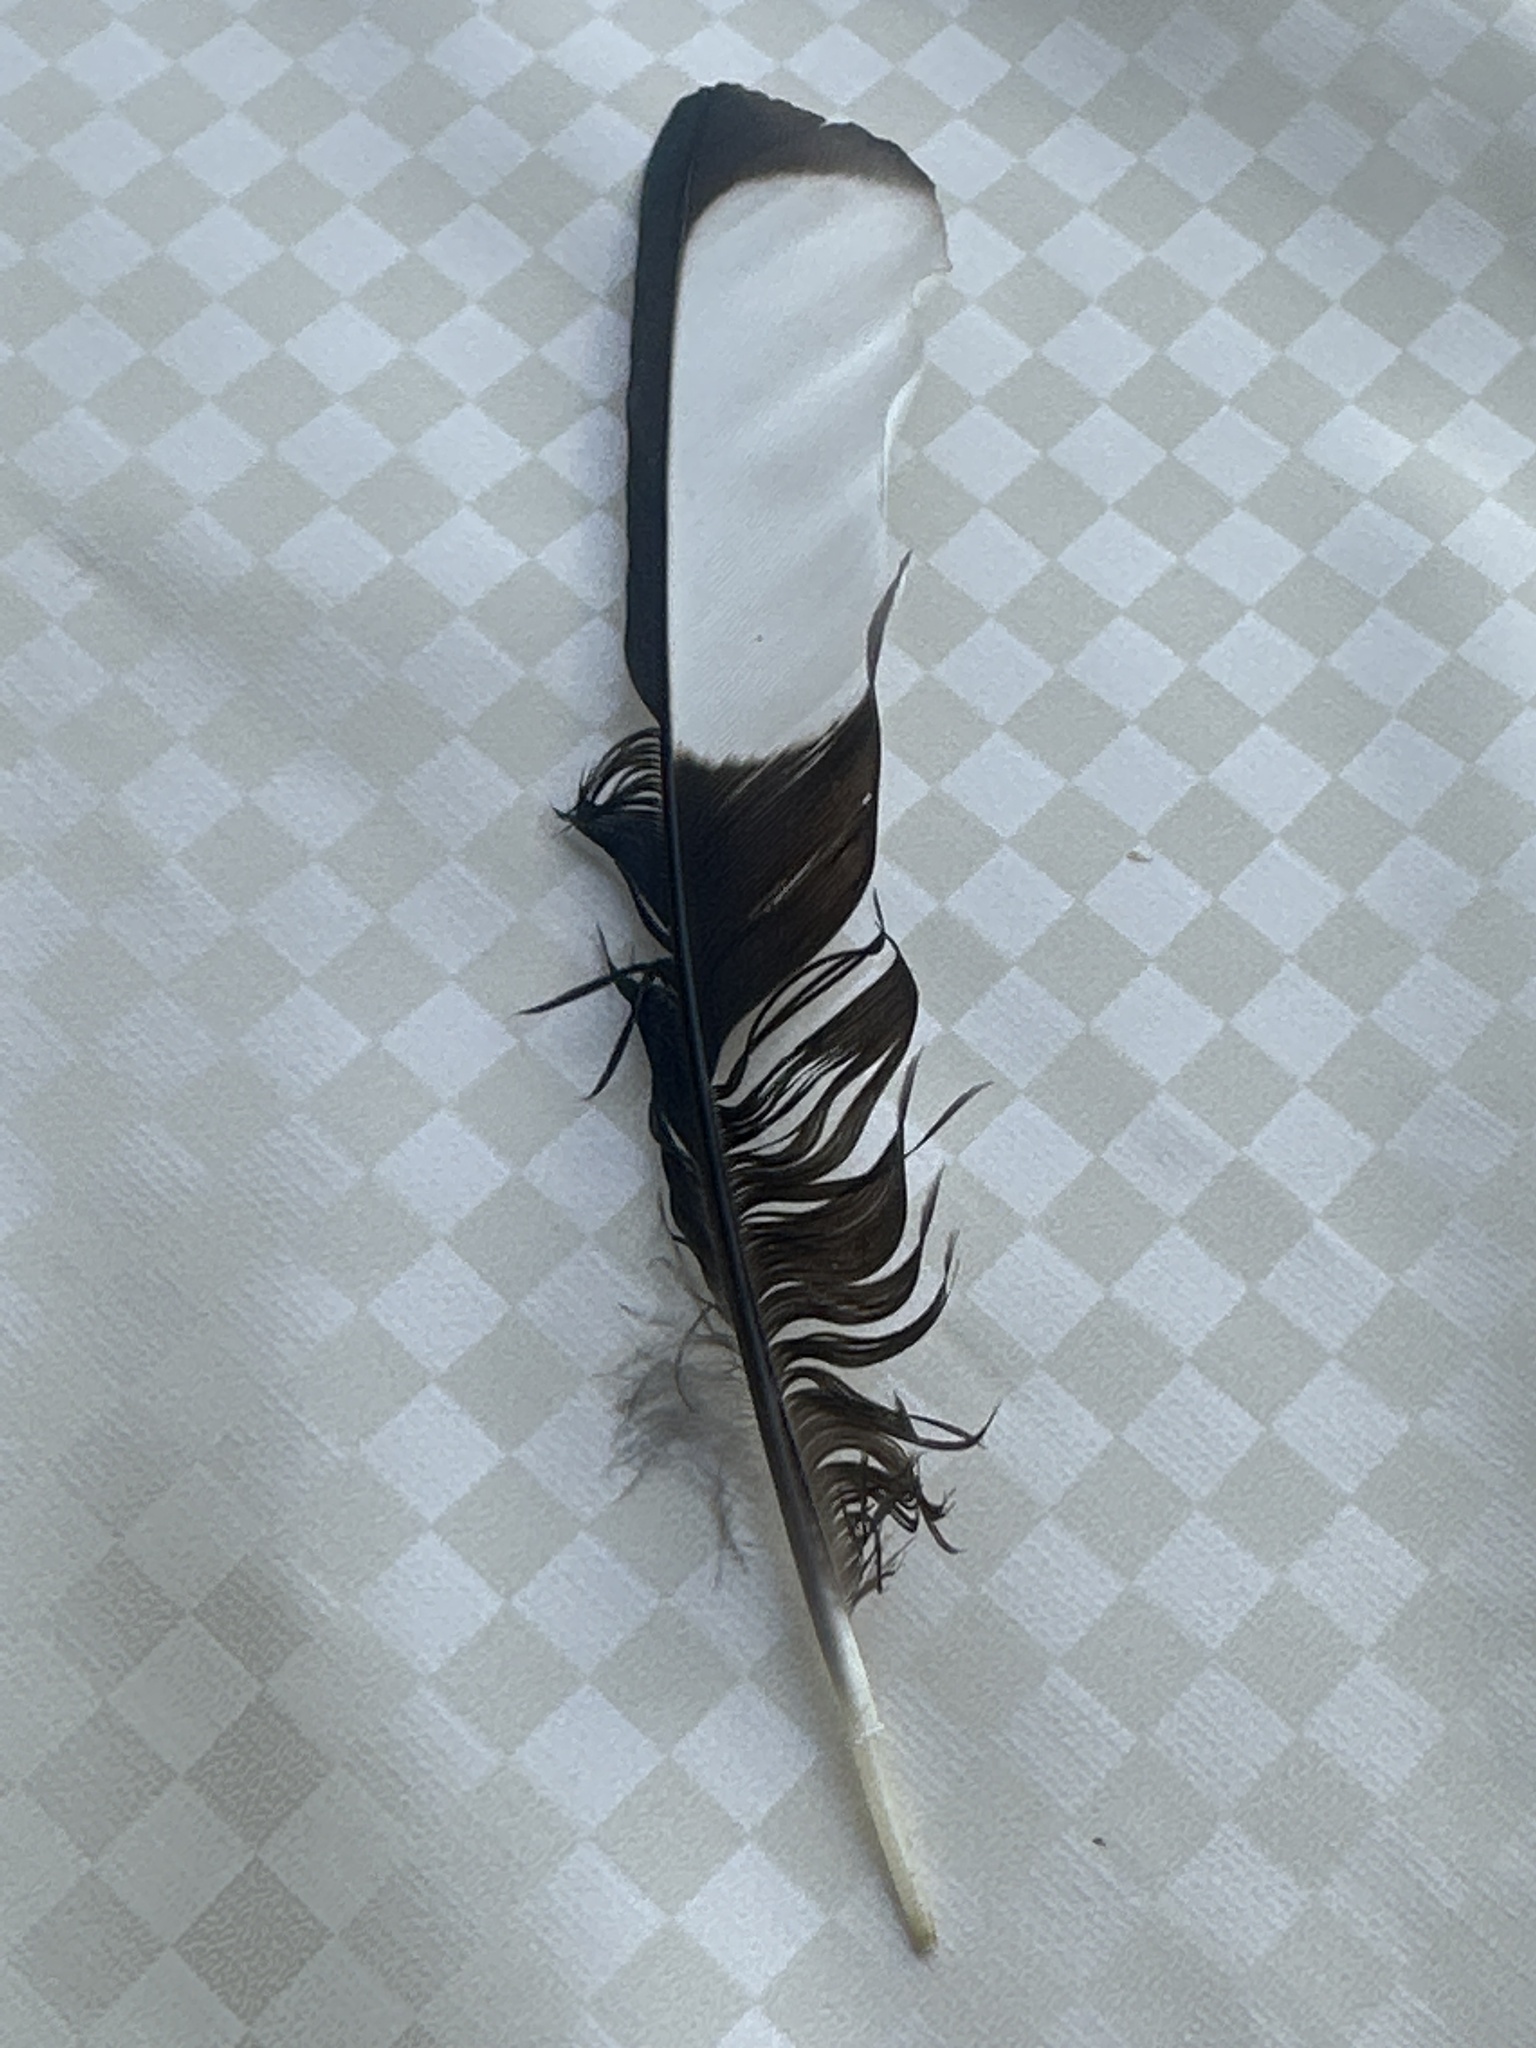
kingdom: Animalia
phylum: Chordata
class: Aves
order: Passeriformes
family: Corvidae
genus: Pica
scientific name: Pica pica
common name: Eurasian magpie
